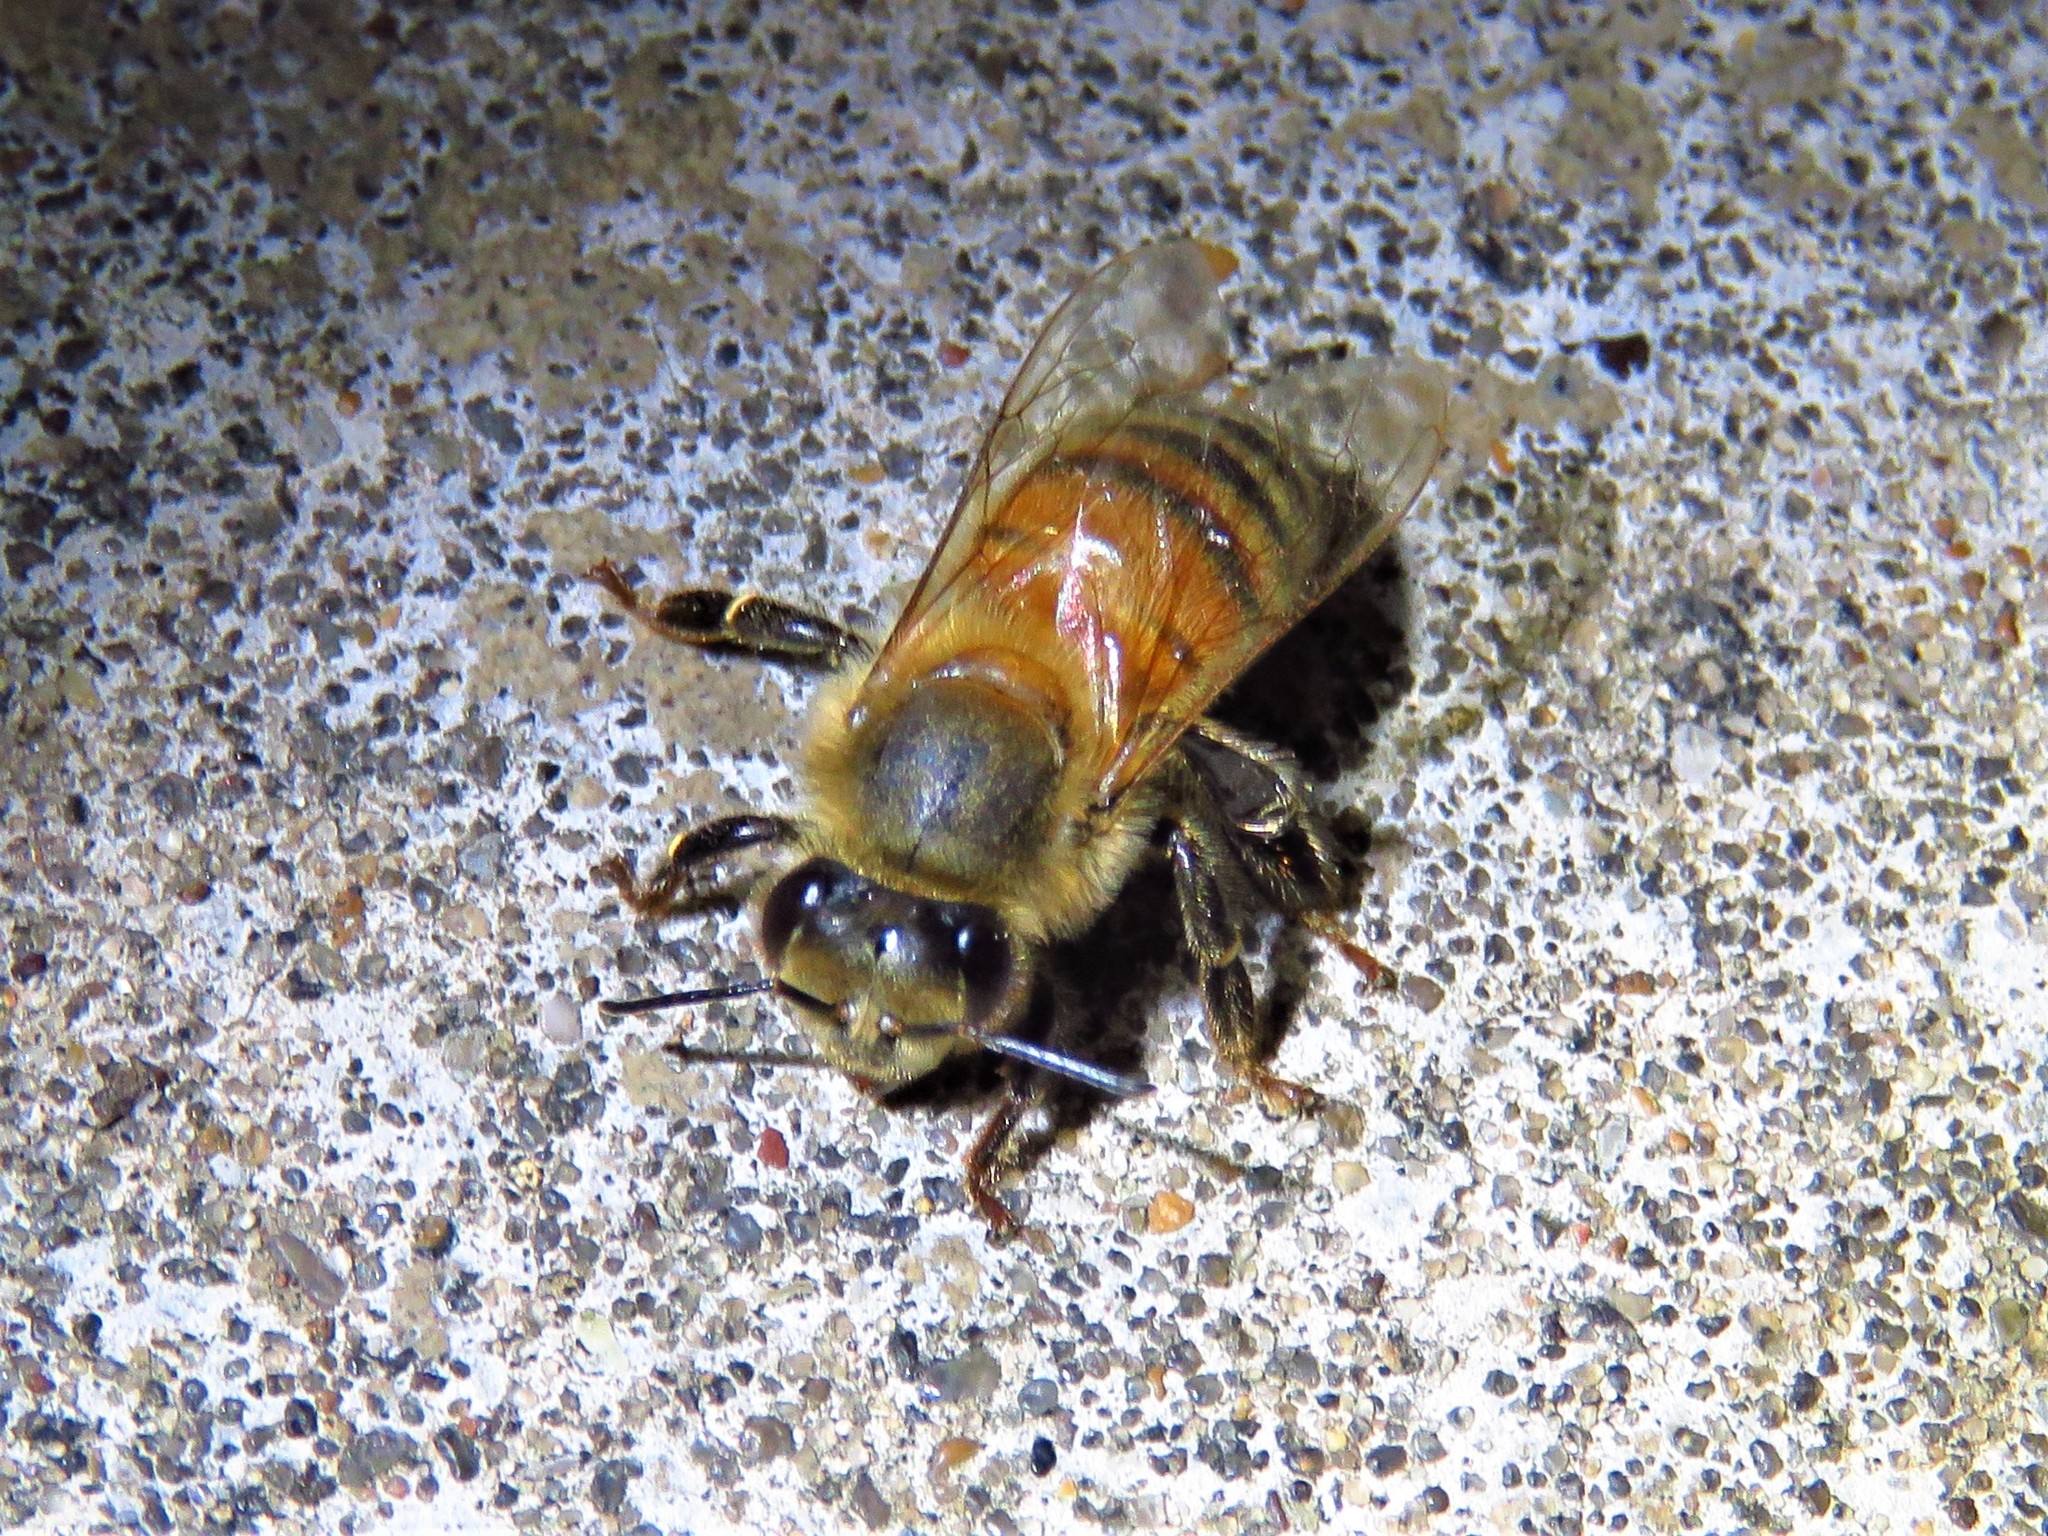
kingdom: Animalia
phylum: Arthropoda
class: Insecta
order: Hymenoptera
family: Apidae
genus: Apis
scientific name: Apis mellifera
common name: Honey bee
